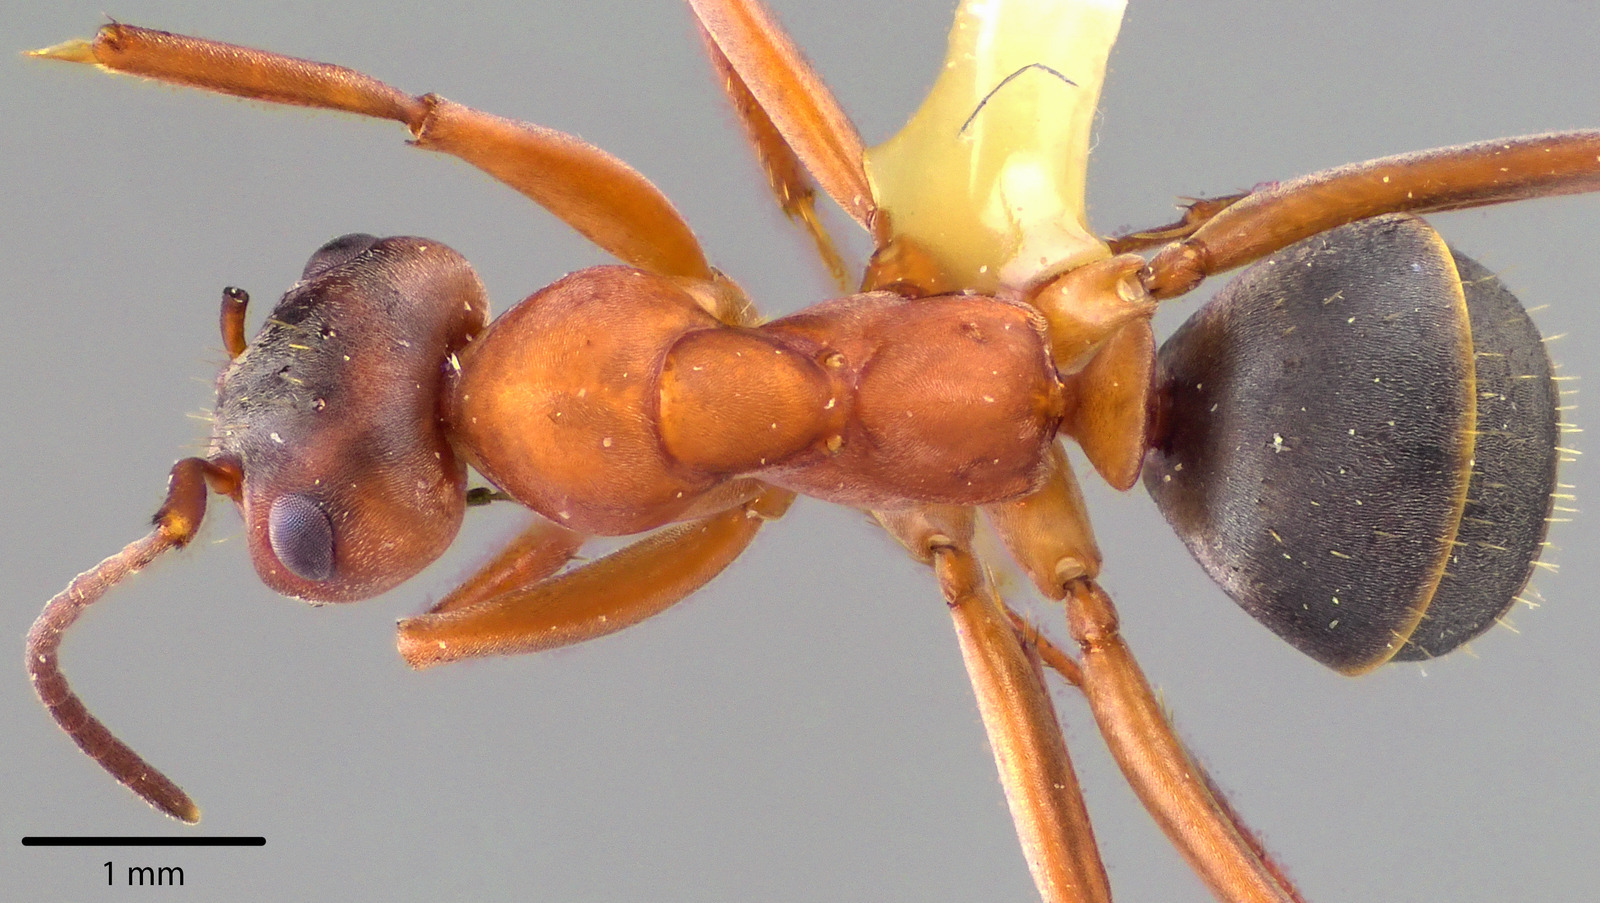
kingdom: Animalia
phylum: Arthropoda
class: Insecta
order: Hymenoptera
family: Formicidae
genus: Formica
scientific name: Formica moki
